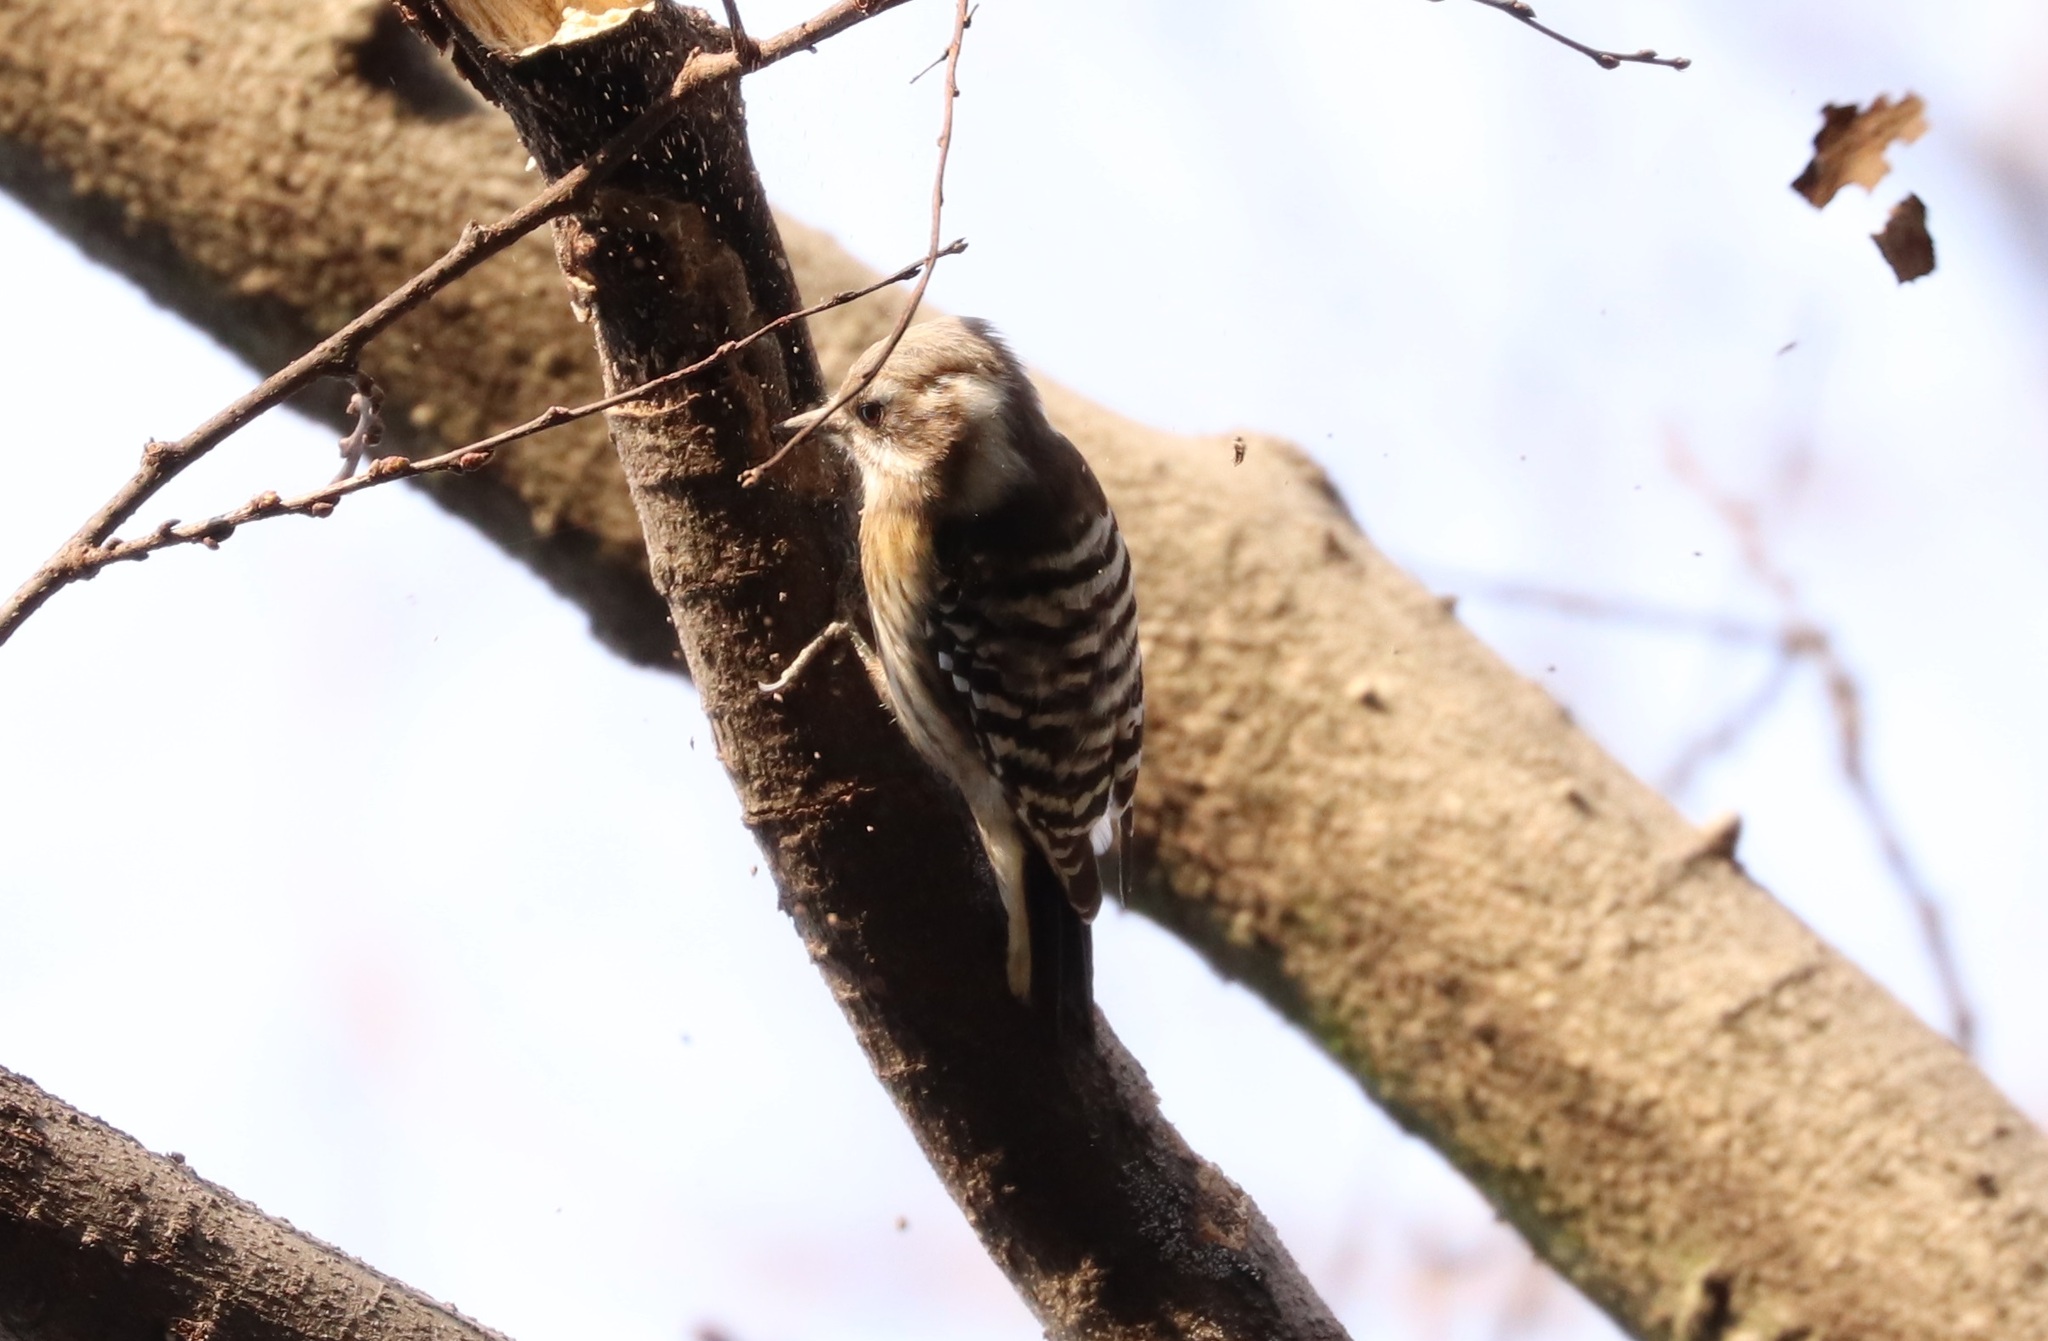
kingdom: Animalia
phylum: Chordata
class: Aves
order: Piciformes
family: Picidae
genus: Yungipicus
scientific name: Yungipicus kizuki
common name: Japanese pygmy woodpecker
